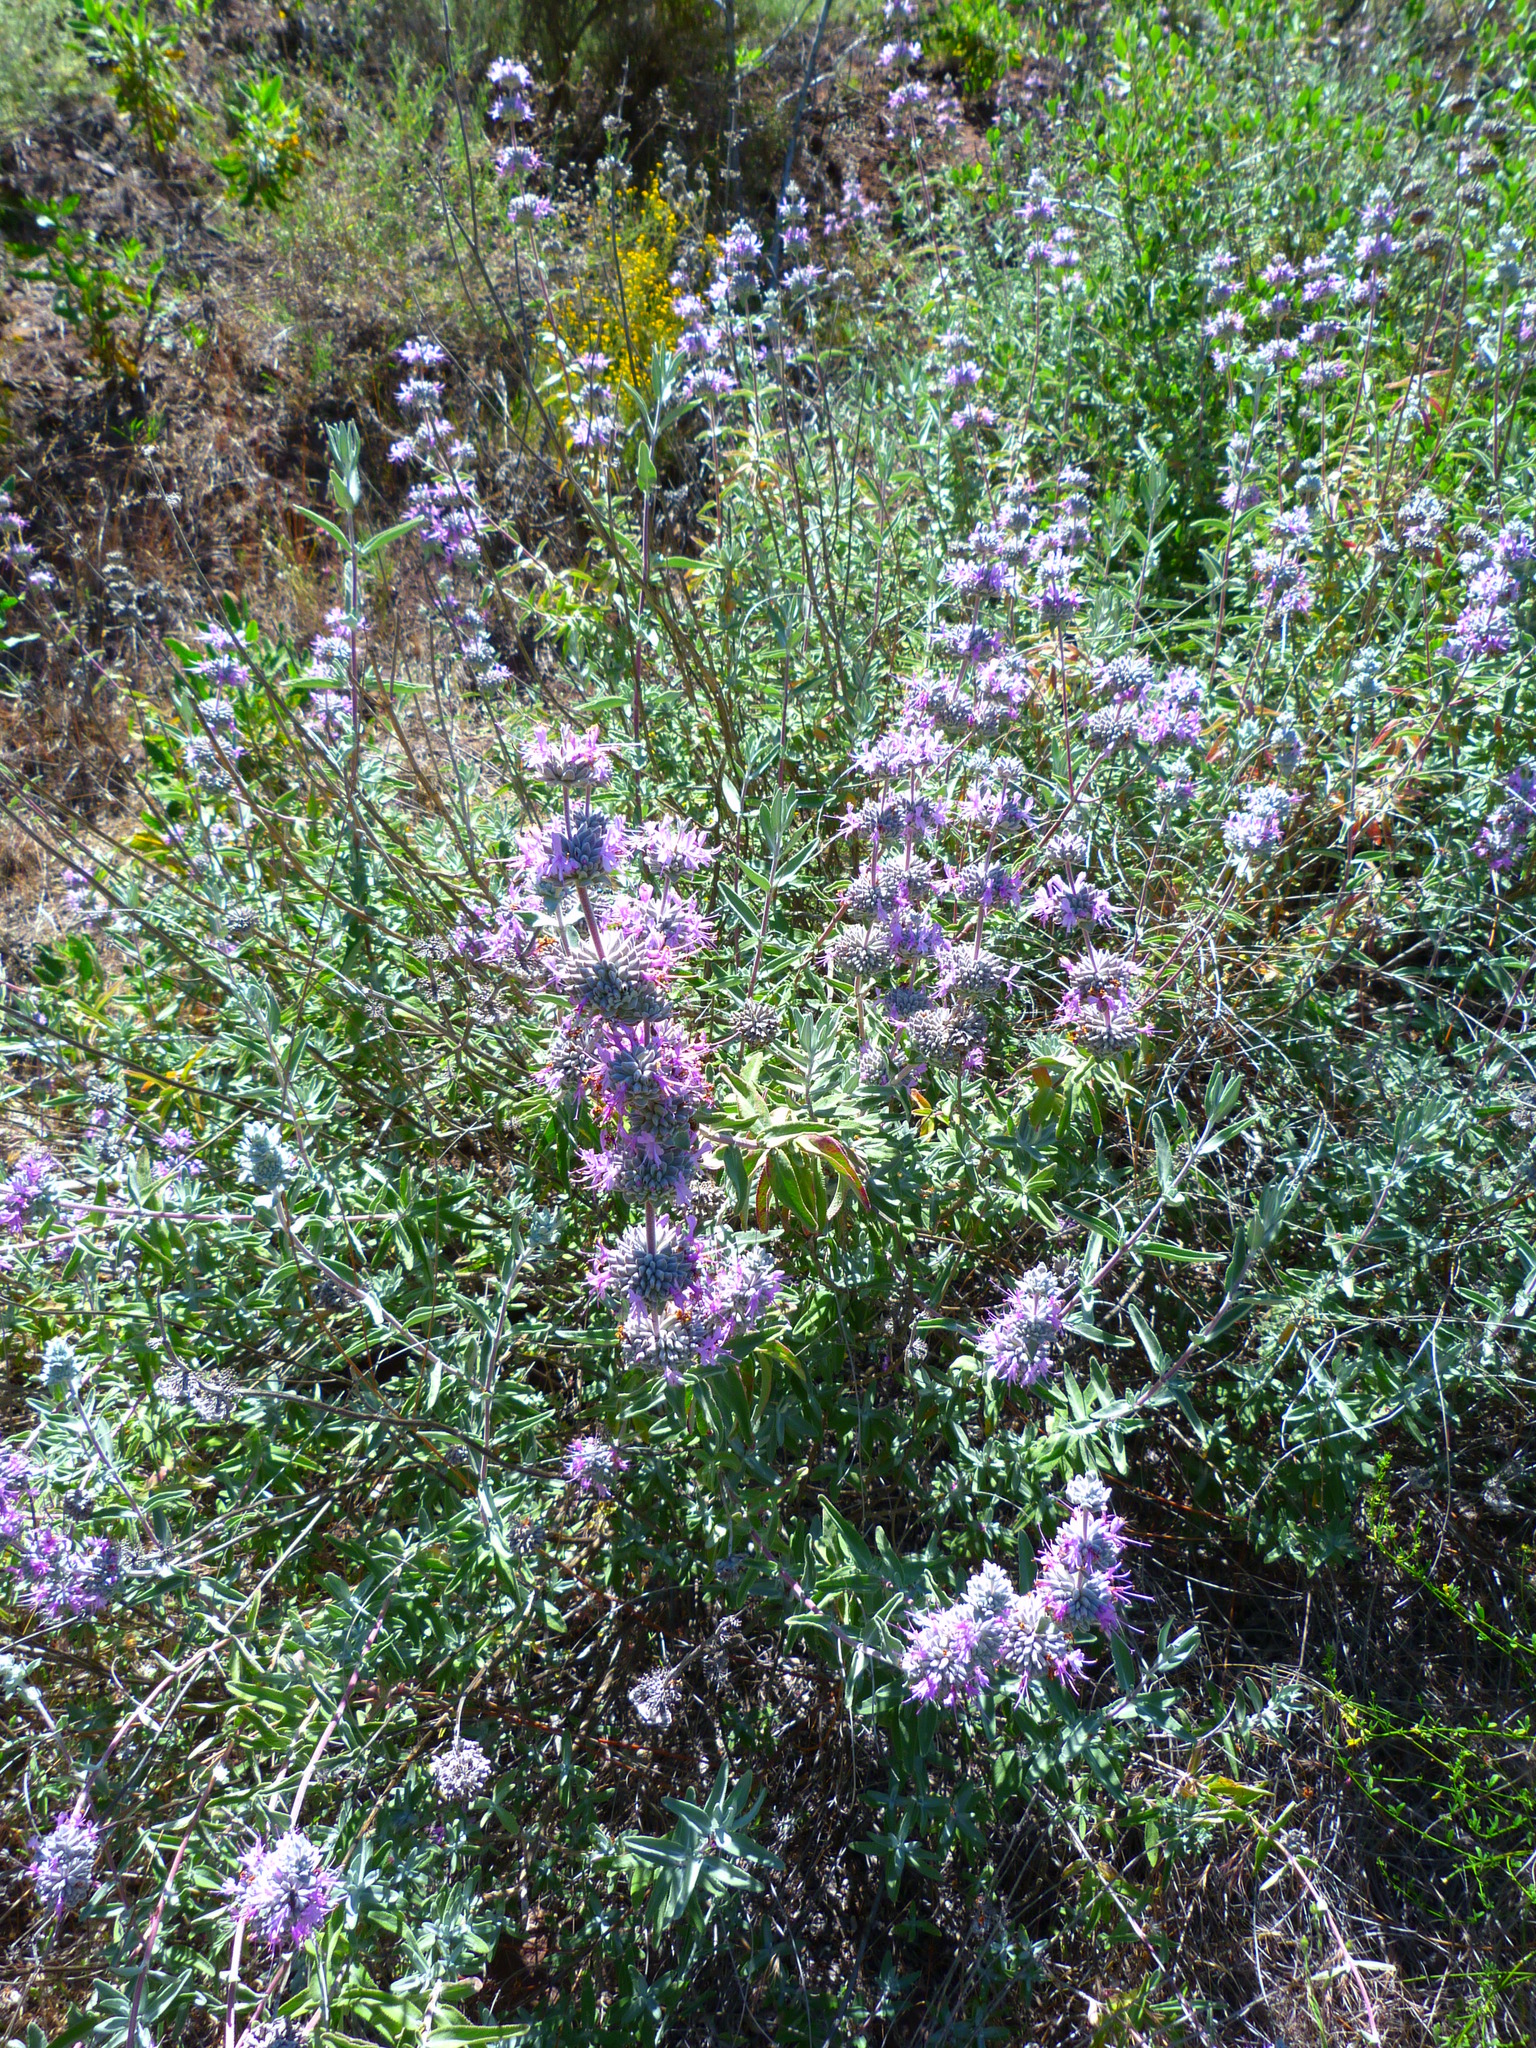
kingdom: Plantae
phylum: Tracheophyta
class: Magnoliopsida
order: Lamiales
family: Lamiaceae
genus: Salvia
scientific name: Salvia leucophylla
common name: Purple sage
